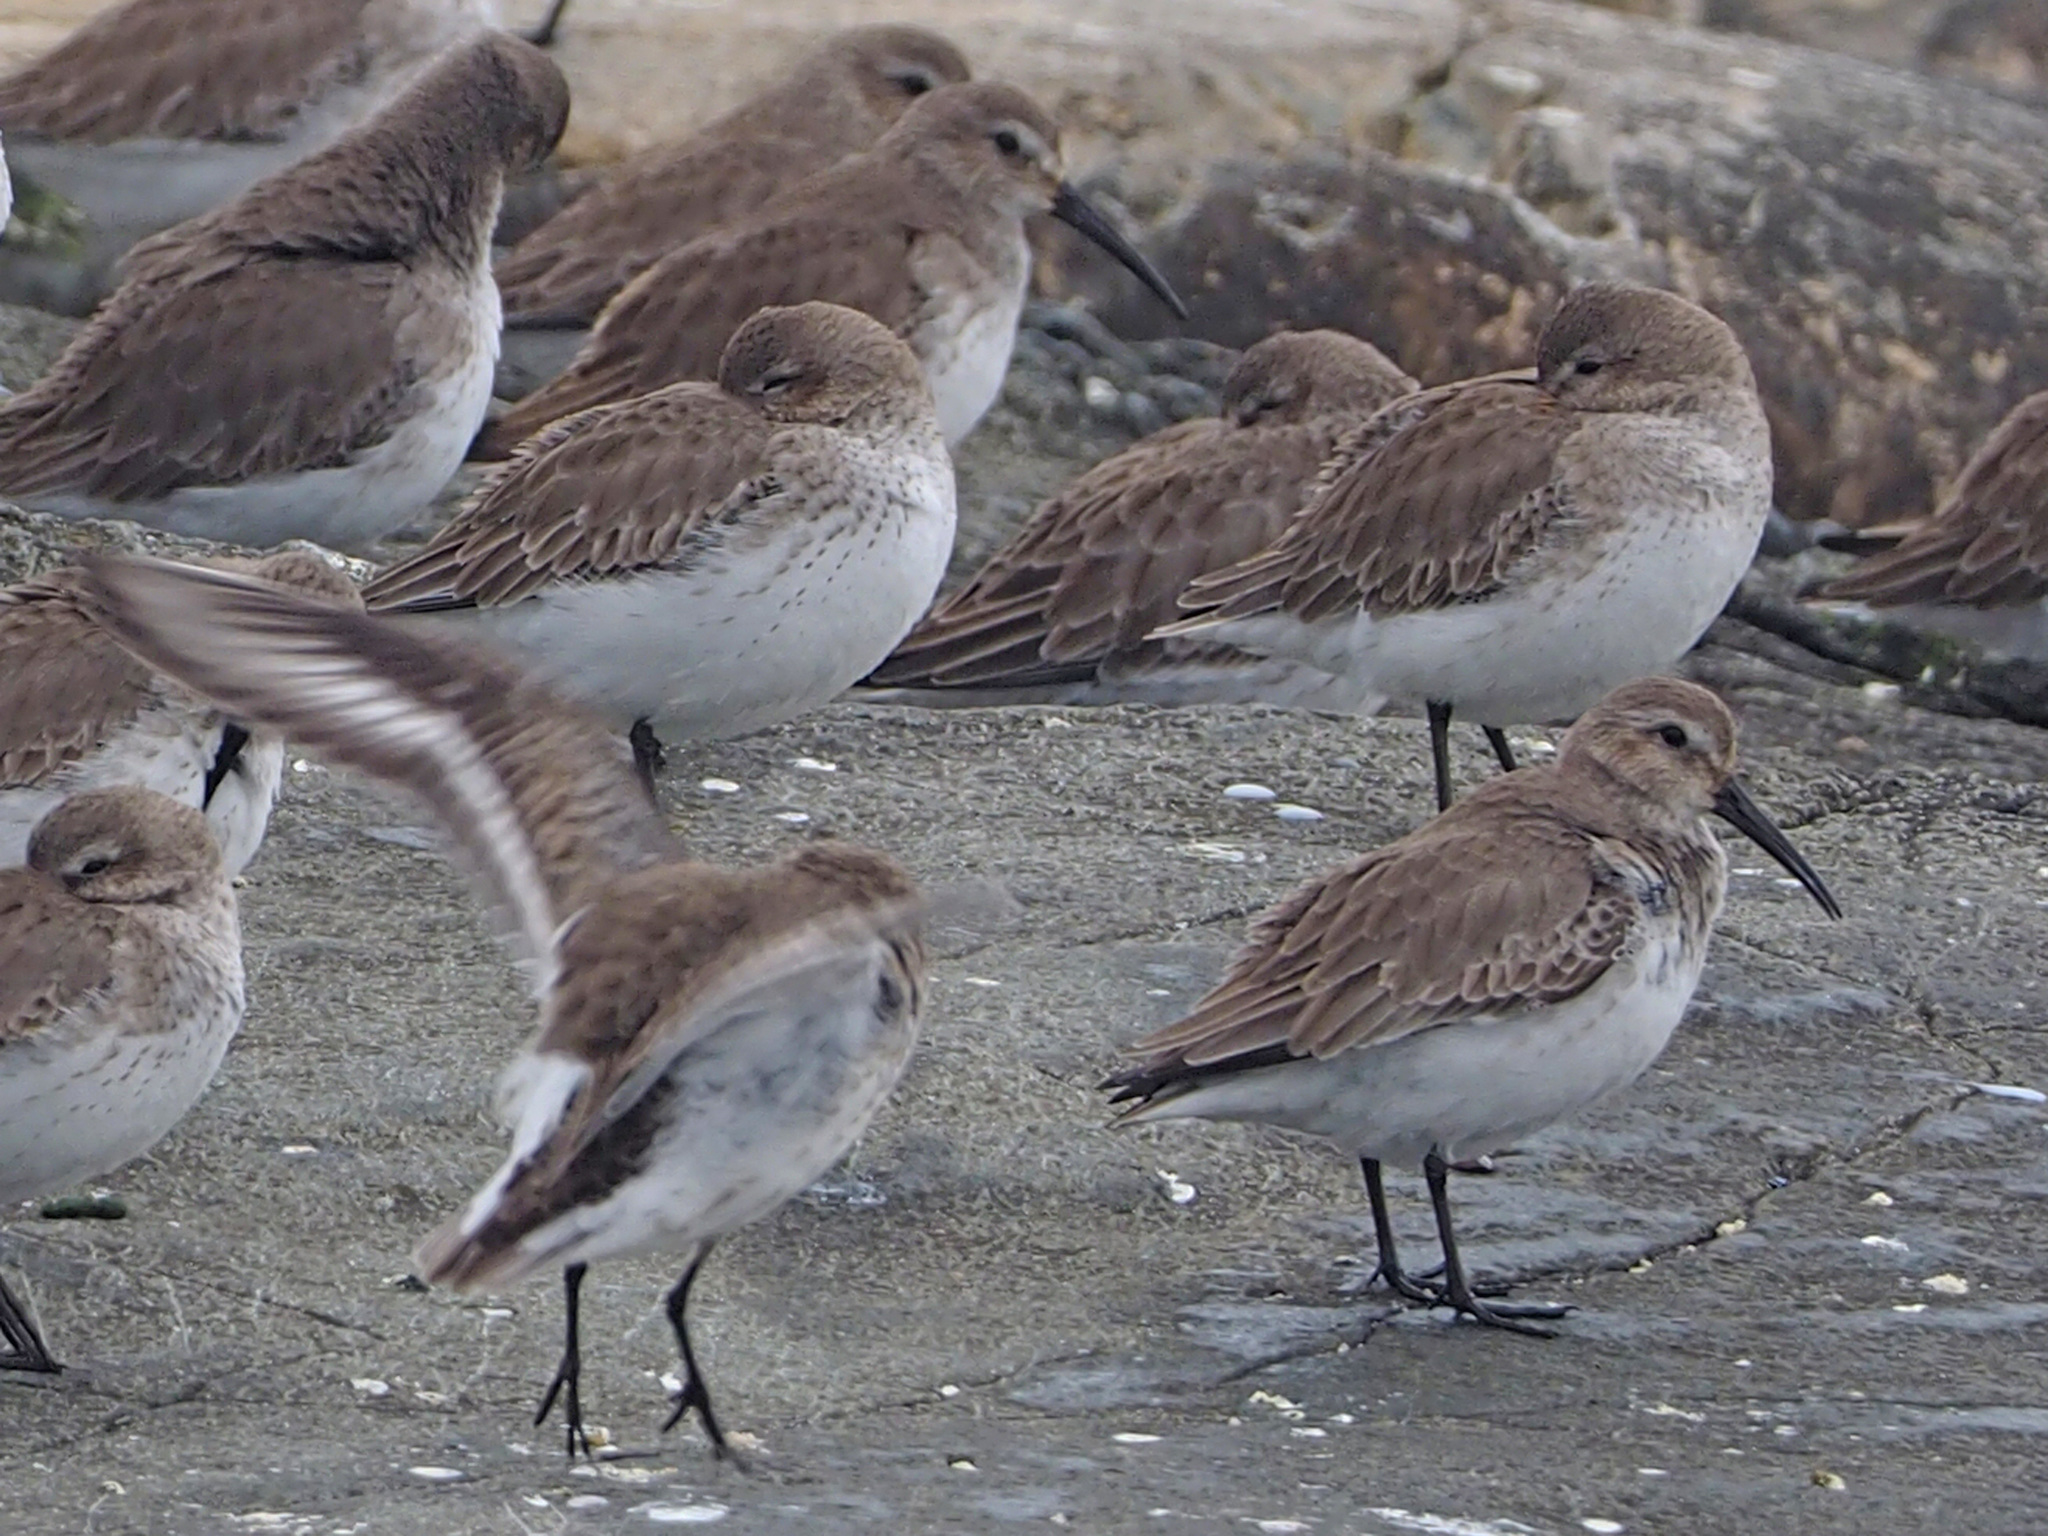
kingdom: Animalia
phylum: Chordata
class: Aves
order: Charadriiformes
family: Scolopacidae
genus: Calidris
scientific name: Calidris alpina
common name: Dunlin
